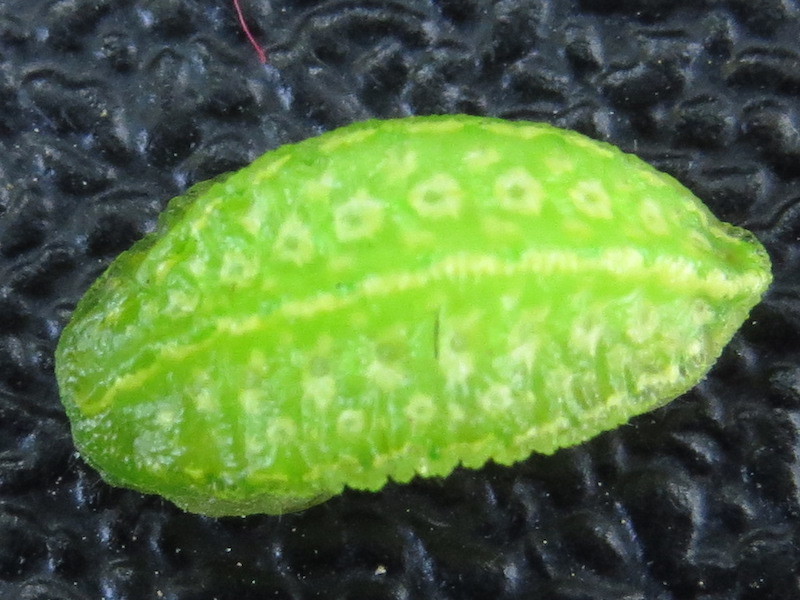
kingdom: Animalia
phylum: Arthropoda
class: Insecta
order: Lepidoptera
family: Limacodidae
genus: Lithacodes
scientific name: Lithacodes fasciola
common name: Yellow-shouldered slug moth
